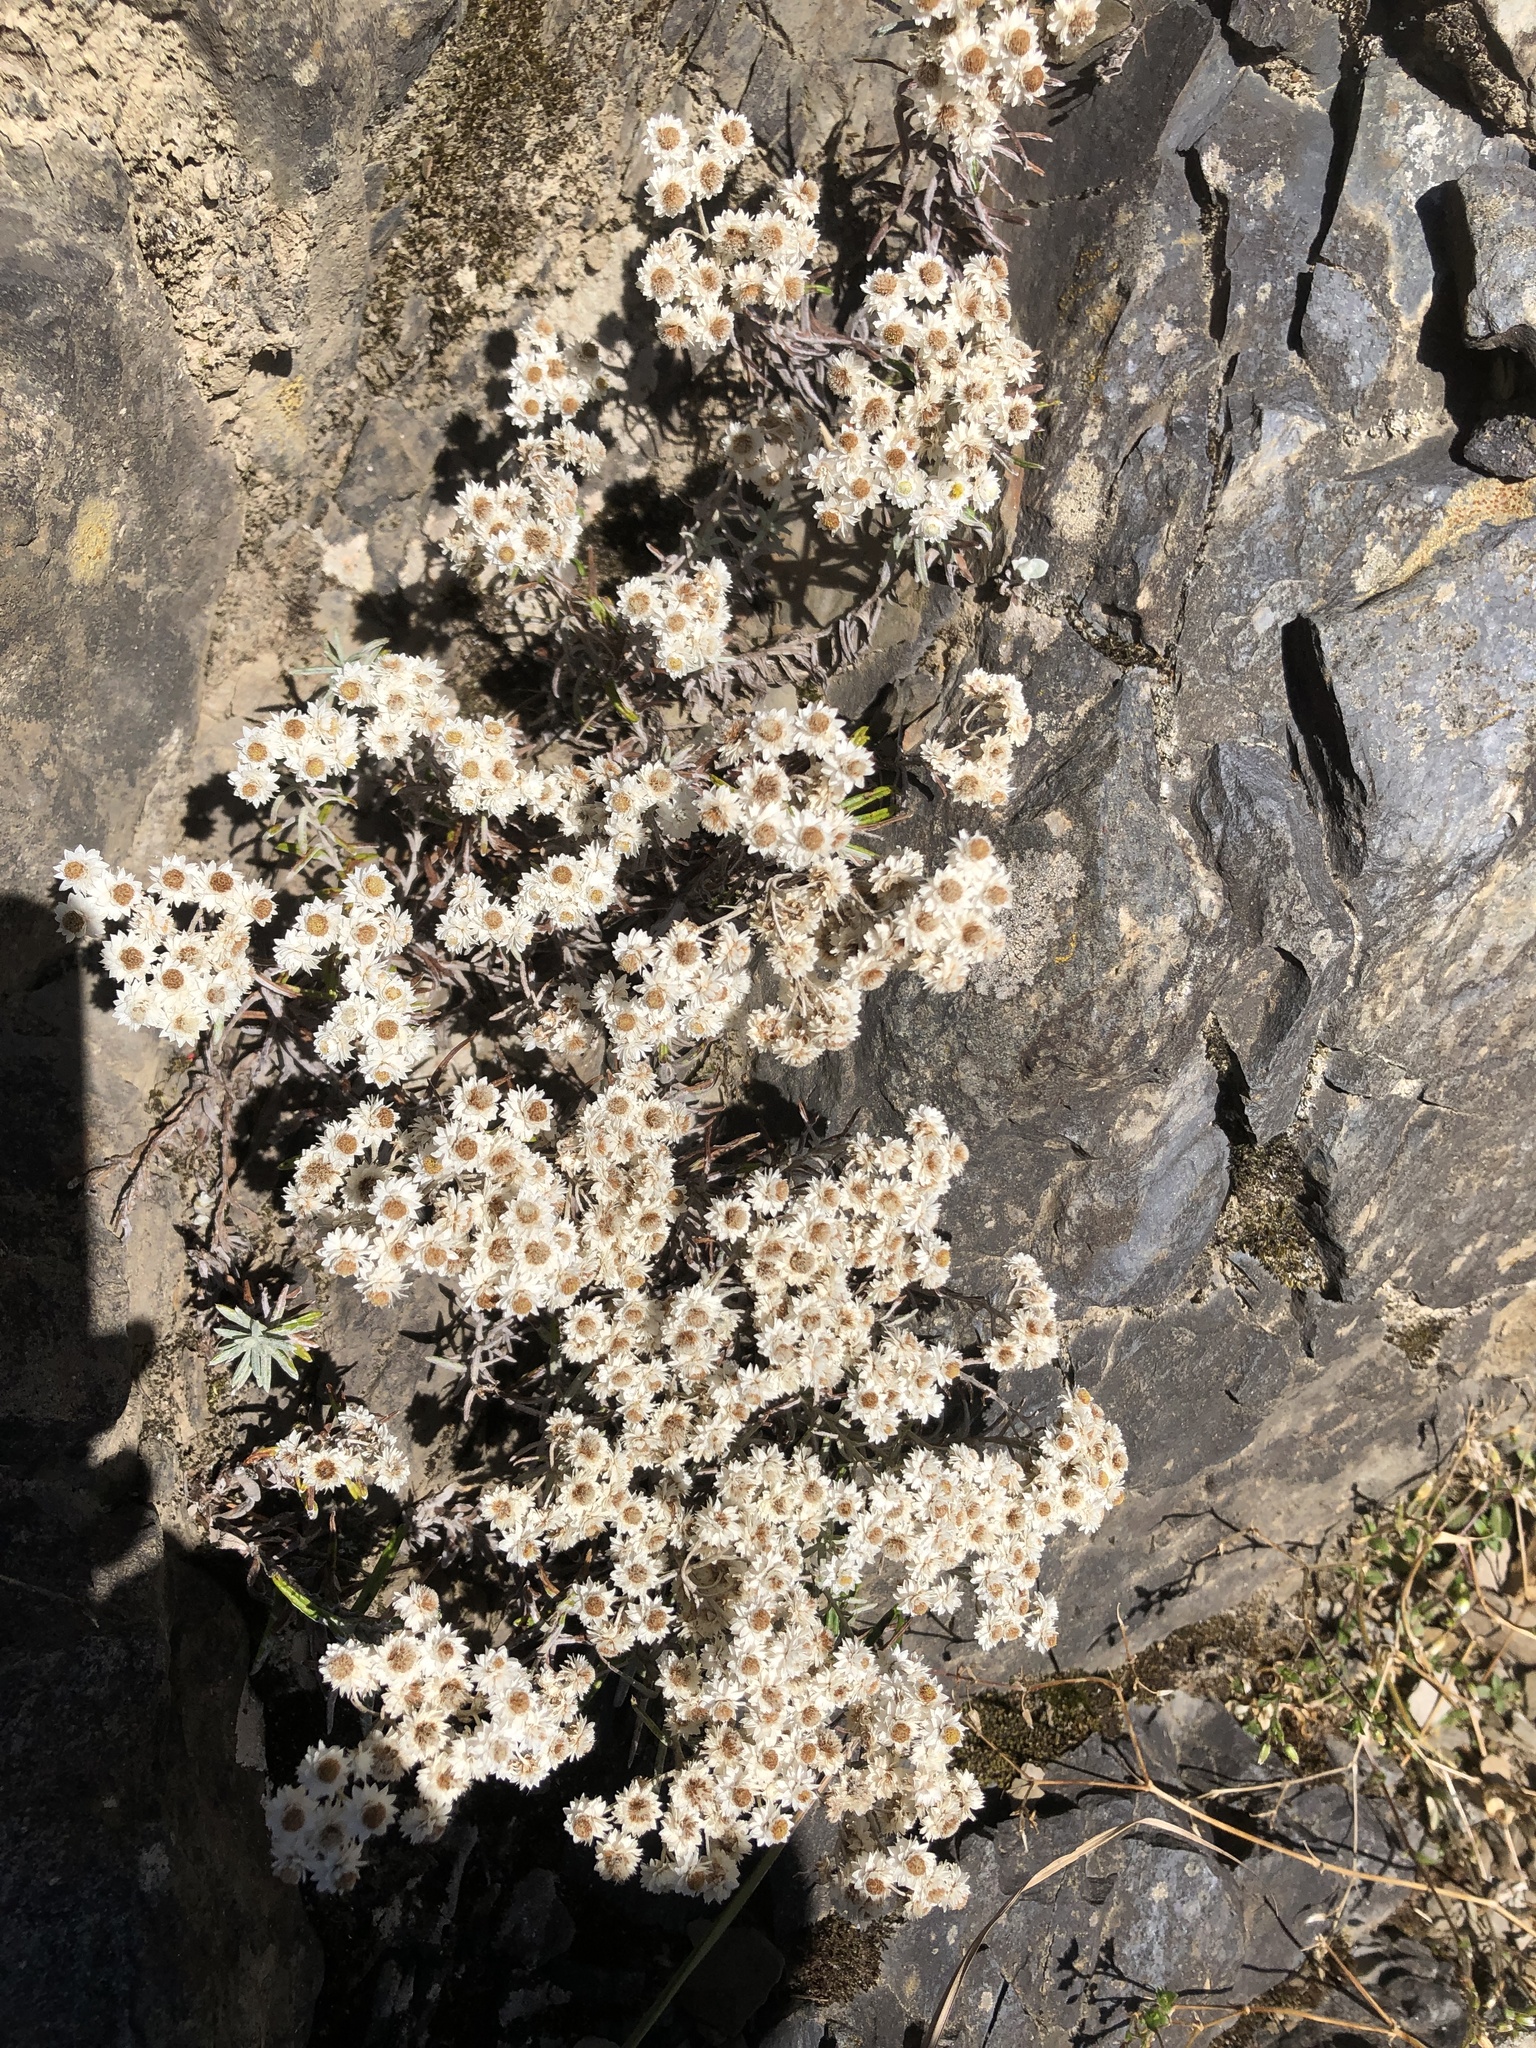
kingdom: Plantae
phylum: Tracheophyta
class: Magnoliopsida
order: Asterales
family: Asteraceae
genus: Anaphalis
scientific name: Anaphalis morrisonicola
